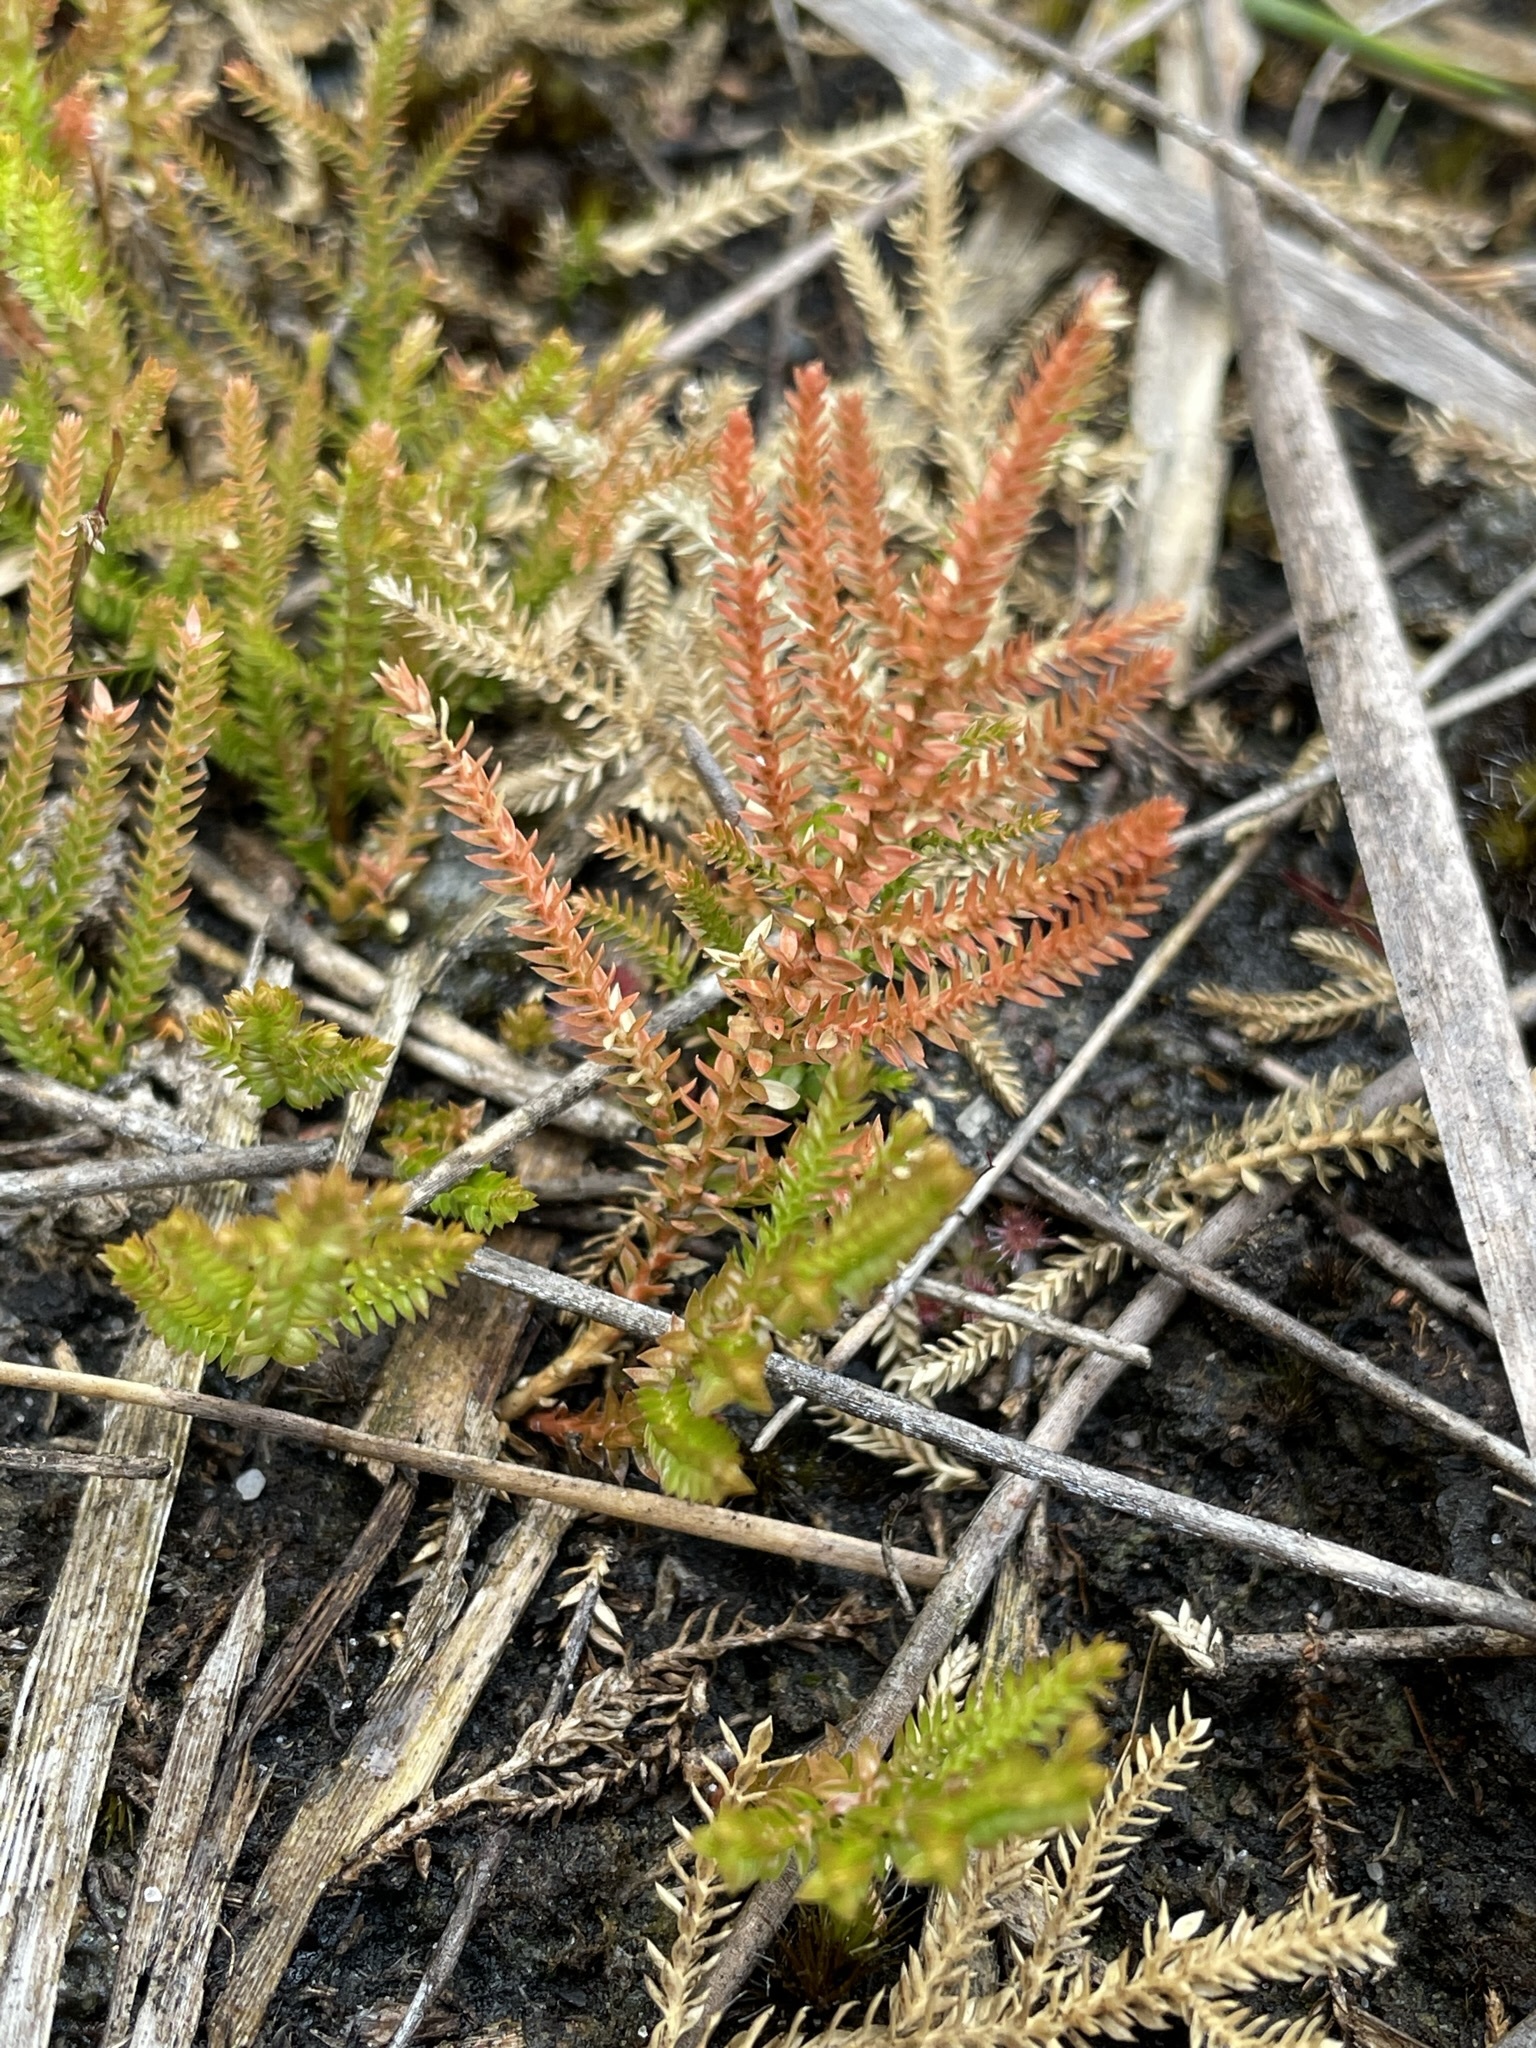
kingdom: Plantae
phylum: Tracheophyta
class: Lycopodiopsida
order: Selaginellales
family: Selaginellaceae
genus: Selaginella
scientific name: Selaginella uliginosa
